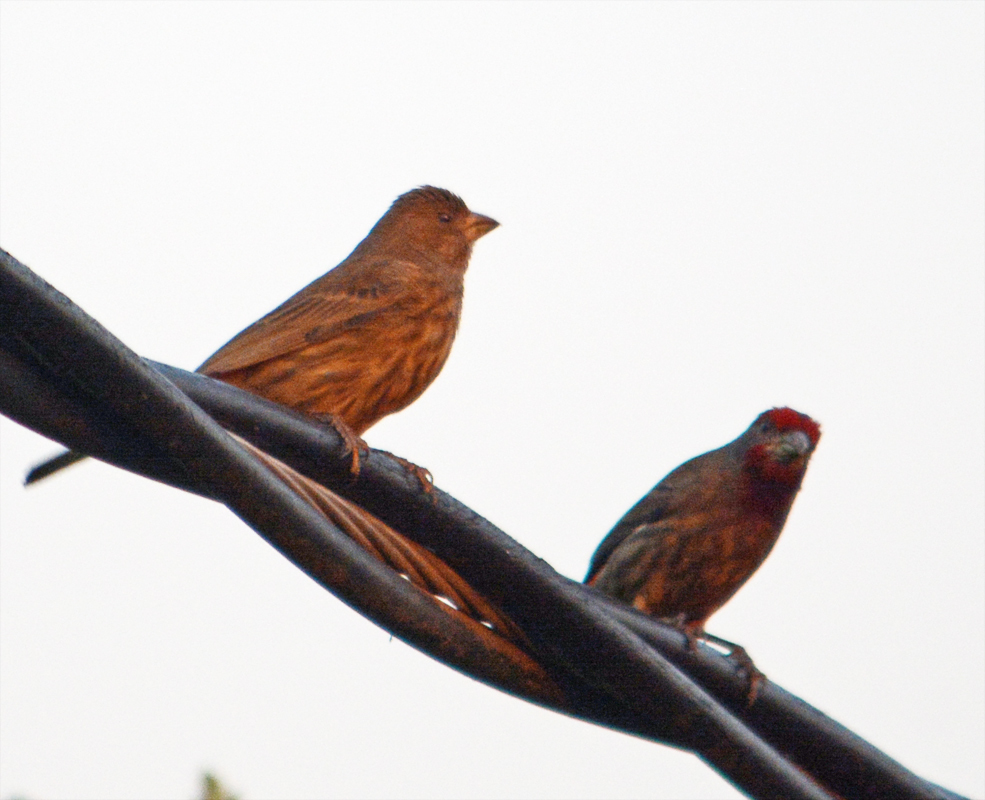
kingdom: Animalia
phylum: Chordata
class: Aves
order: Passeriformes
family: Fringillidae
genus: Haemorhous
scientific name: Haemorhous mexicanus
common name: House finch
